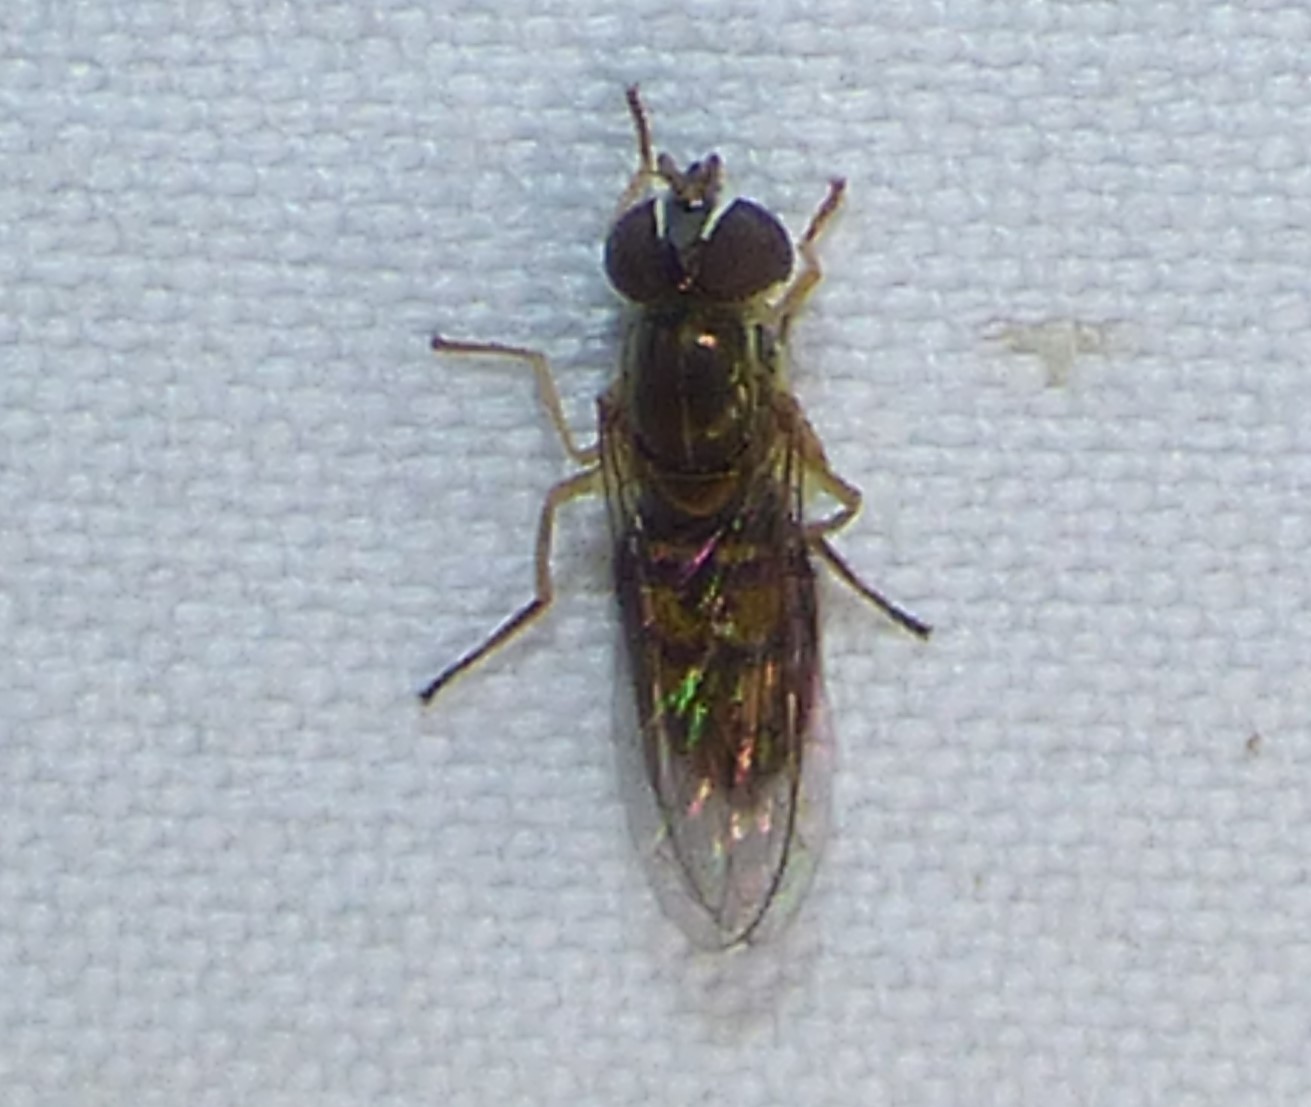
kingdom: Animalia
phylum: Arthropoda
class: Insecta
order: Diptera
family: Syrphidae
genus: Toxomerus
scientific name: Toxomerus marginatus
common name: Syrphid fly
